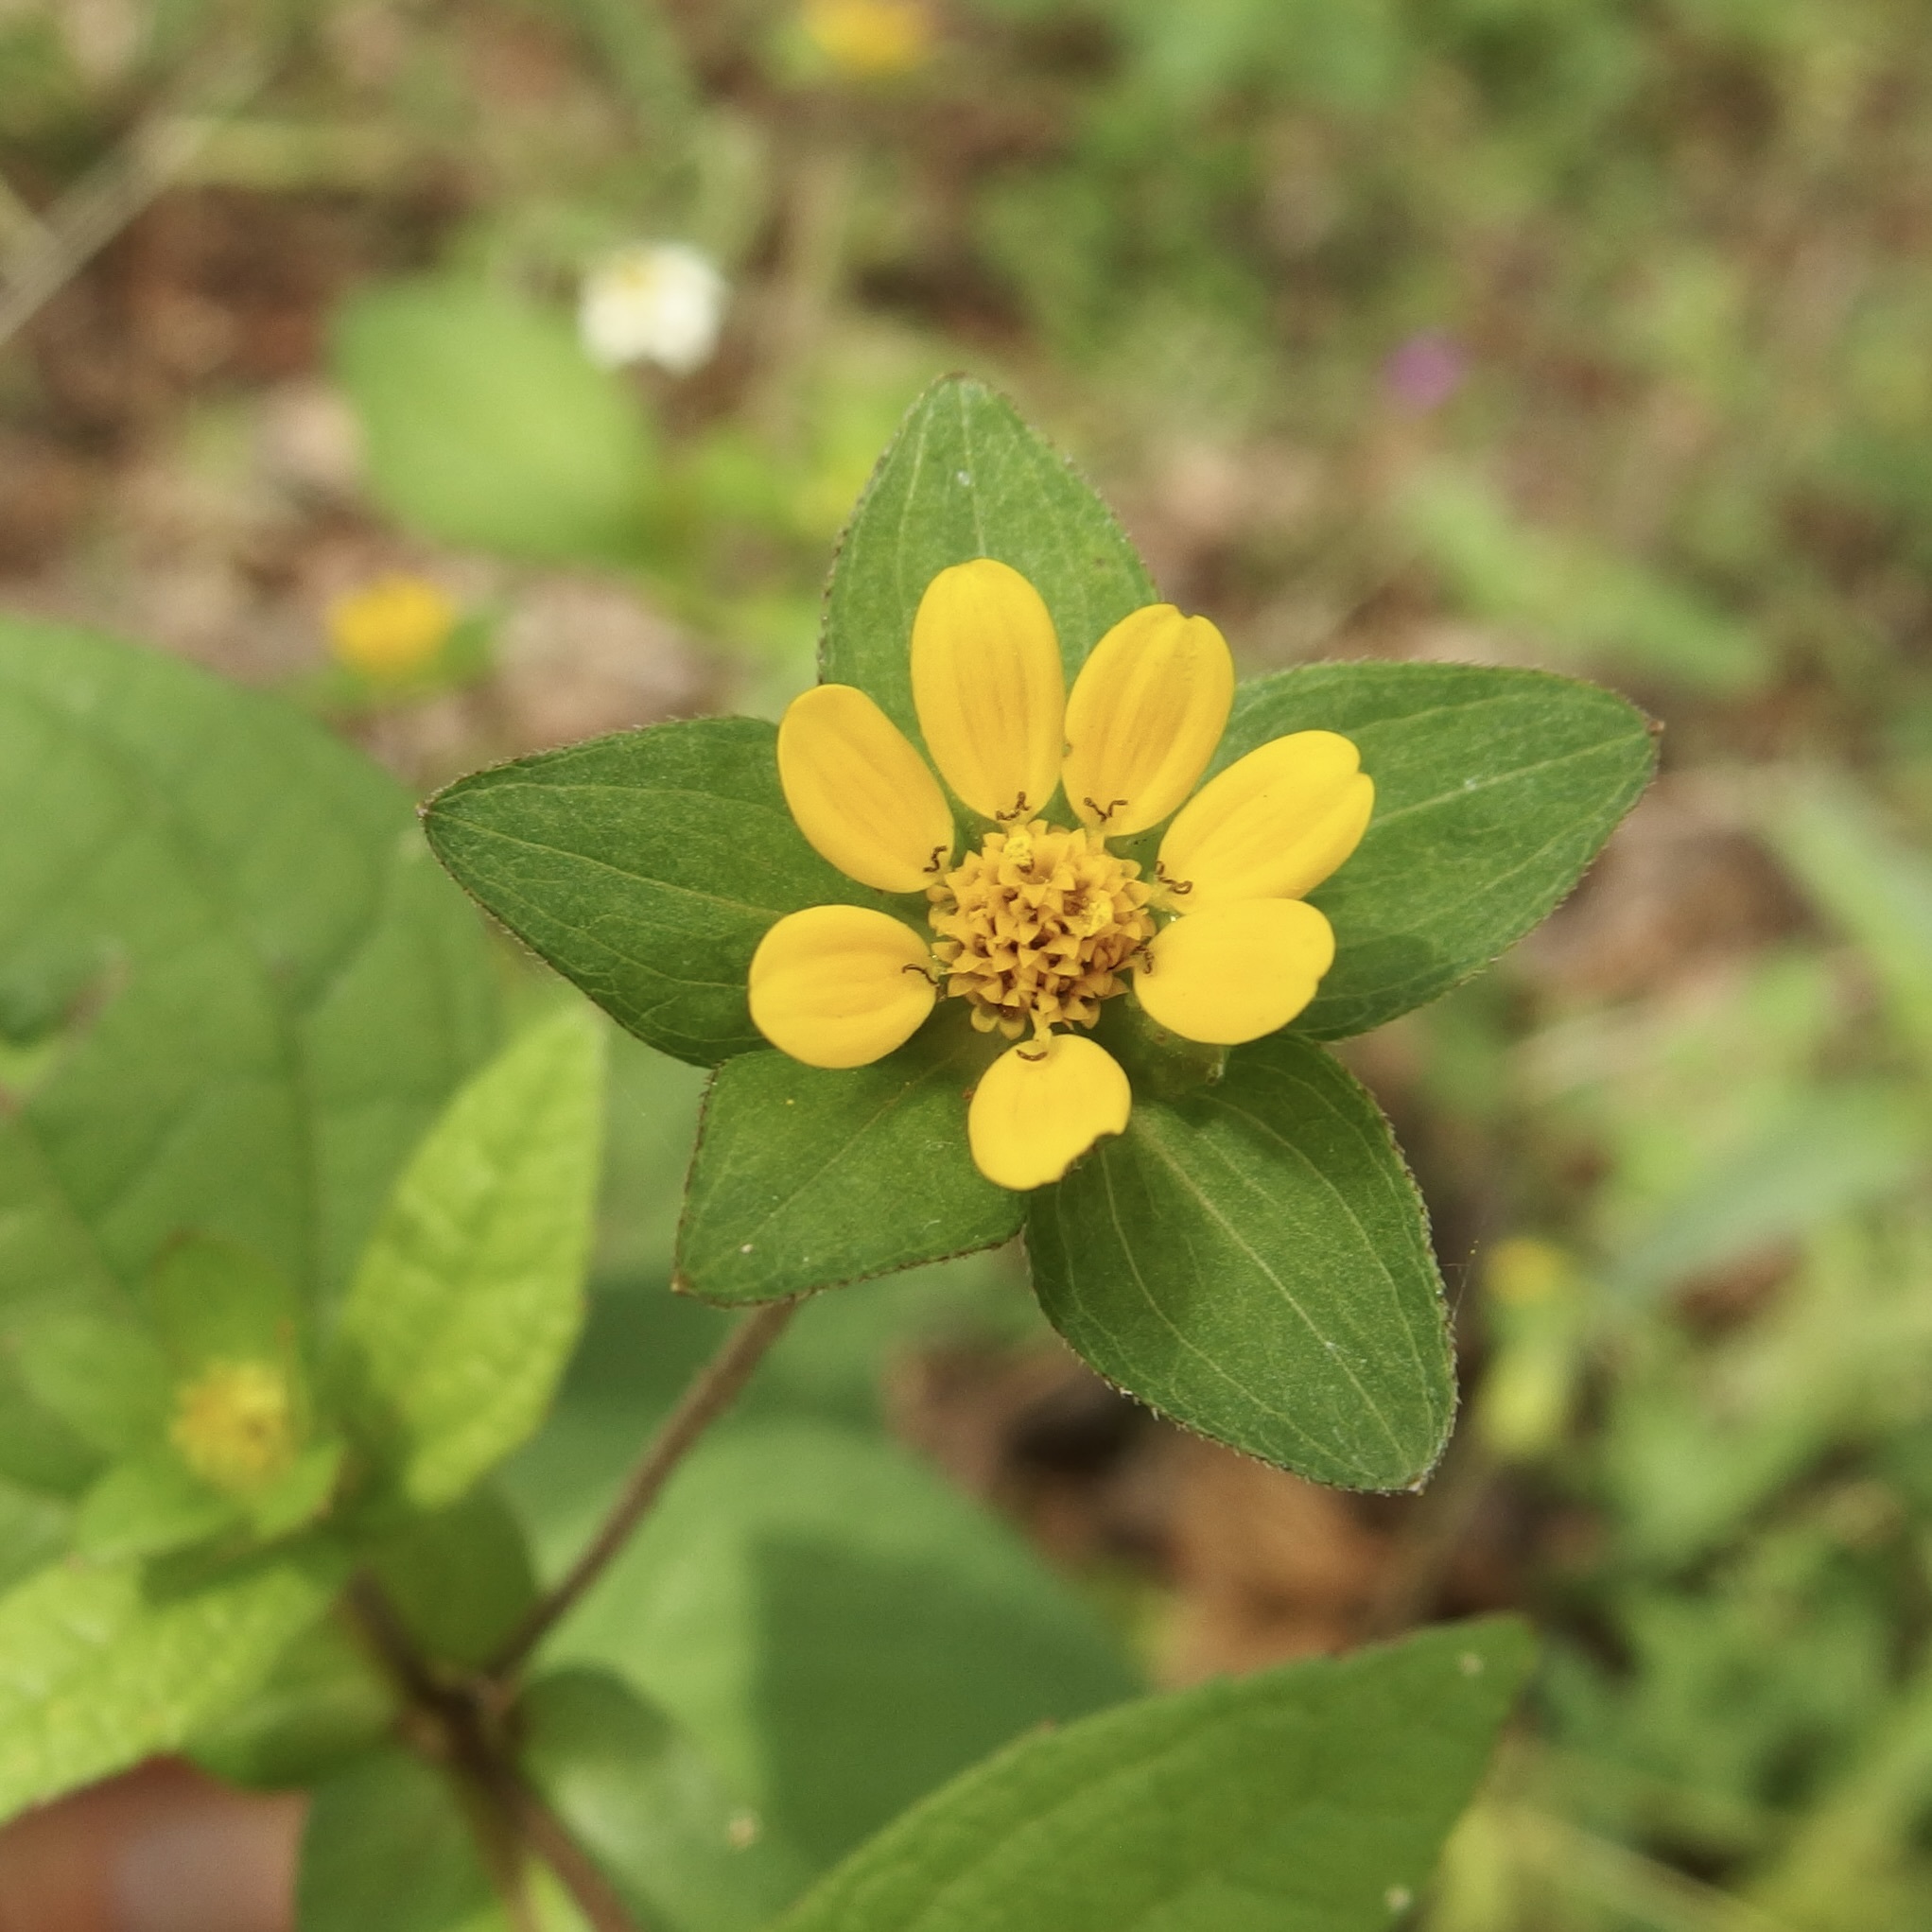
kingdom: Plantae
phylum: Tracheophyta
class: Magnoliopsida
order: Asterales
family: Asteraceae
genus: Melampodium
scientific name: Melampodium perfoliatum
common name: Perfoliate blackfoot
